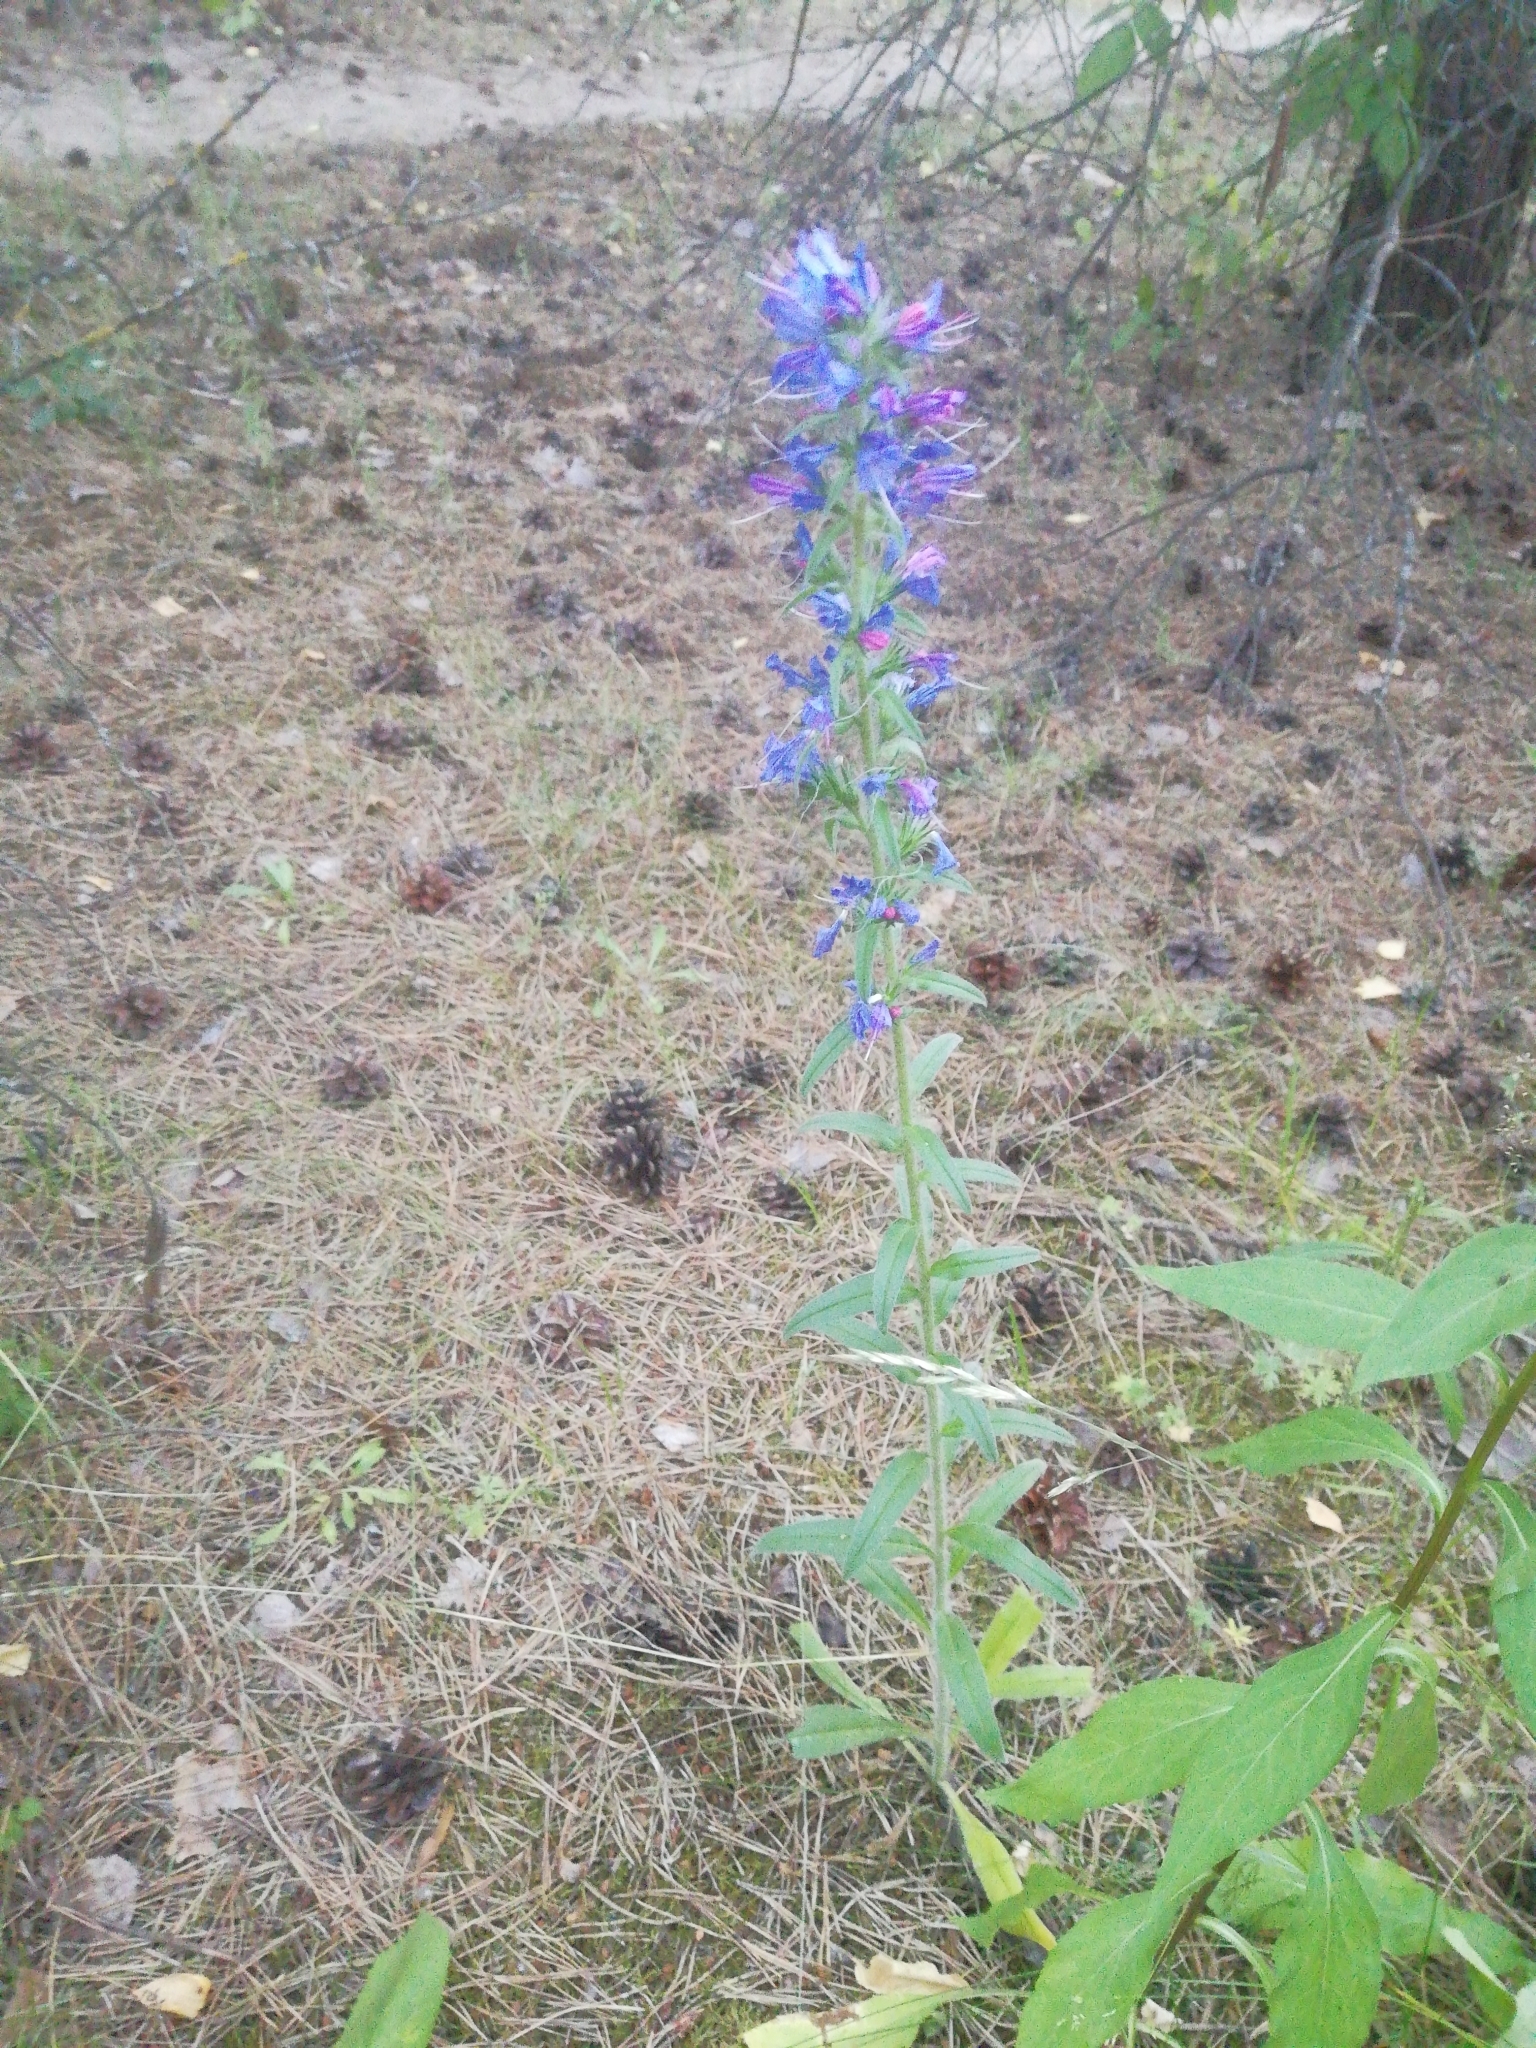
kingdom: Plantae
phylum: Tracheophyta
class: Magnoliopsida
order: Boraginales
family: Boraginaceae
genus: Echium
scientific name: Echium vulgare
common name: Common viper's bugloss
